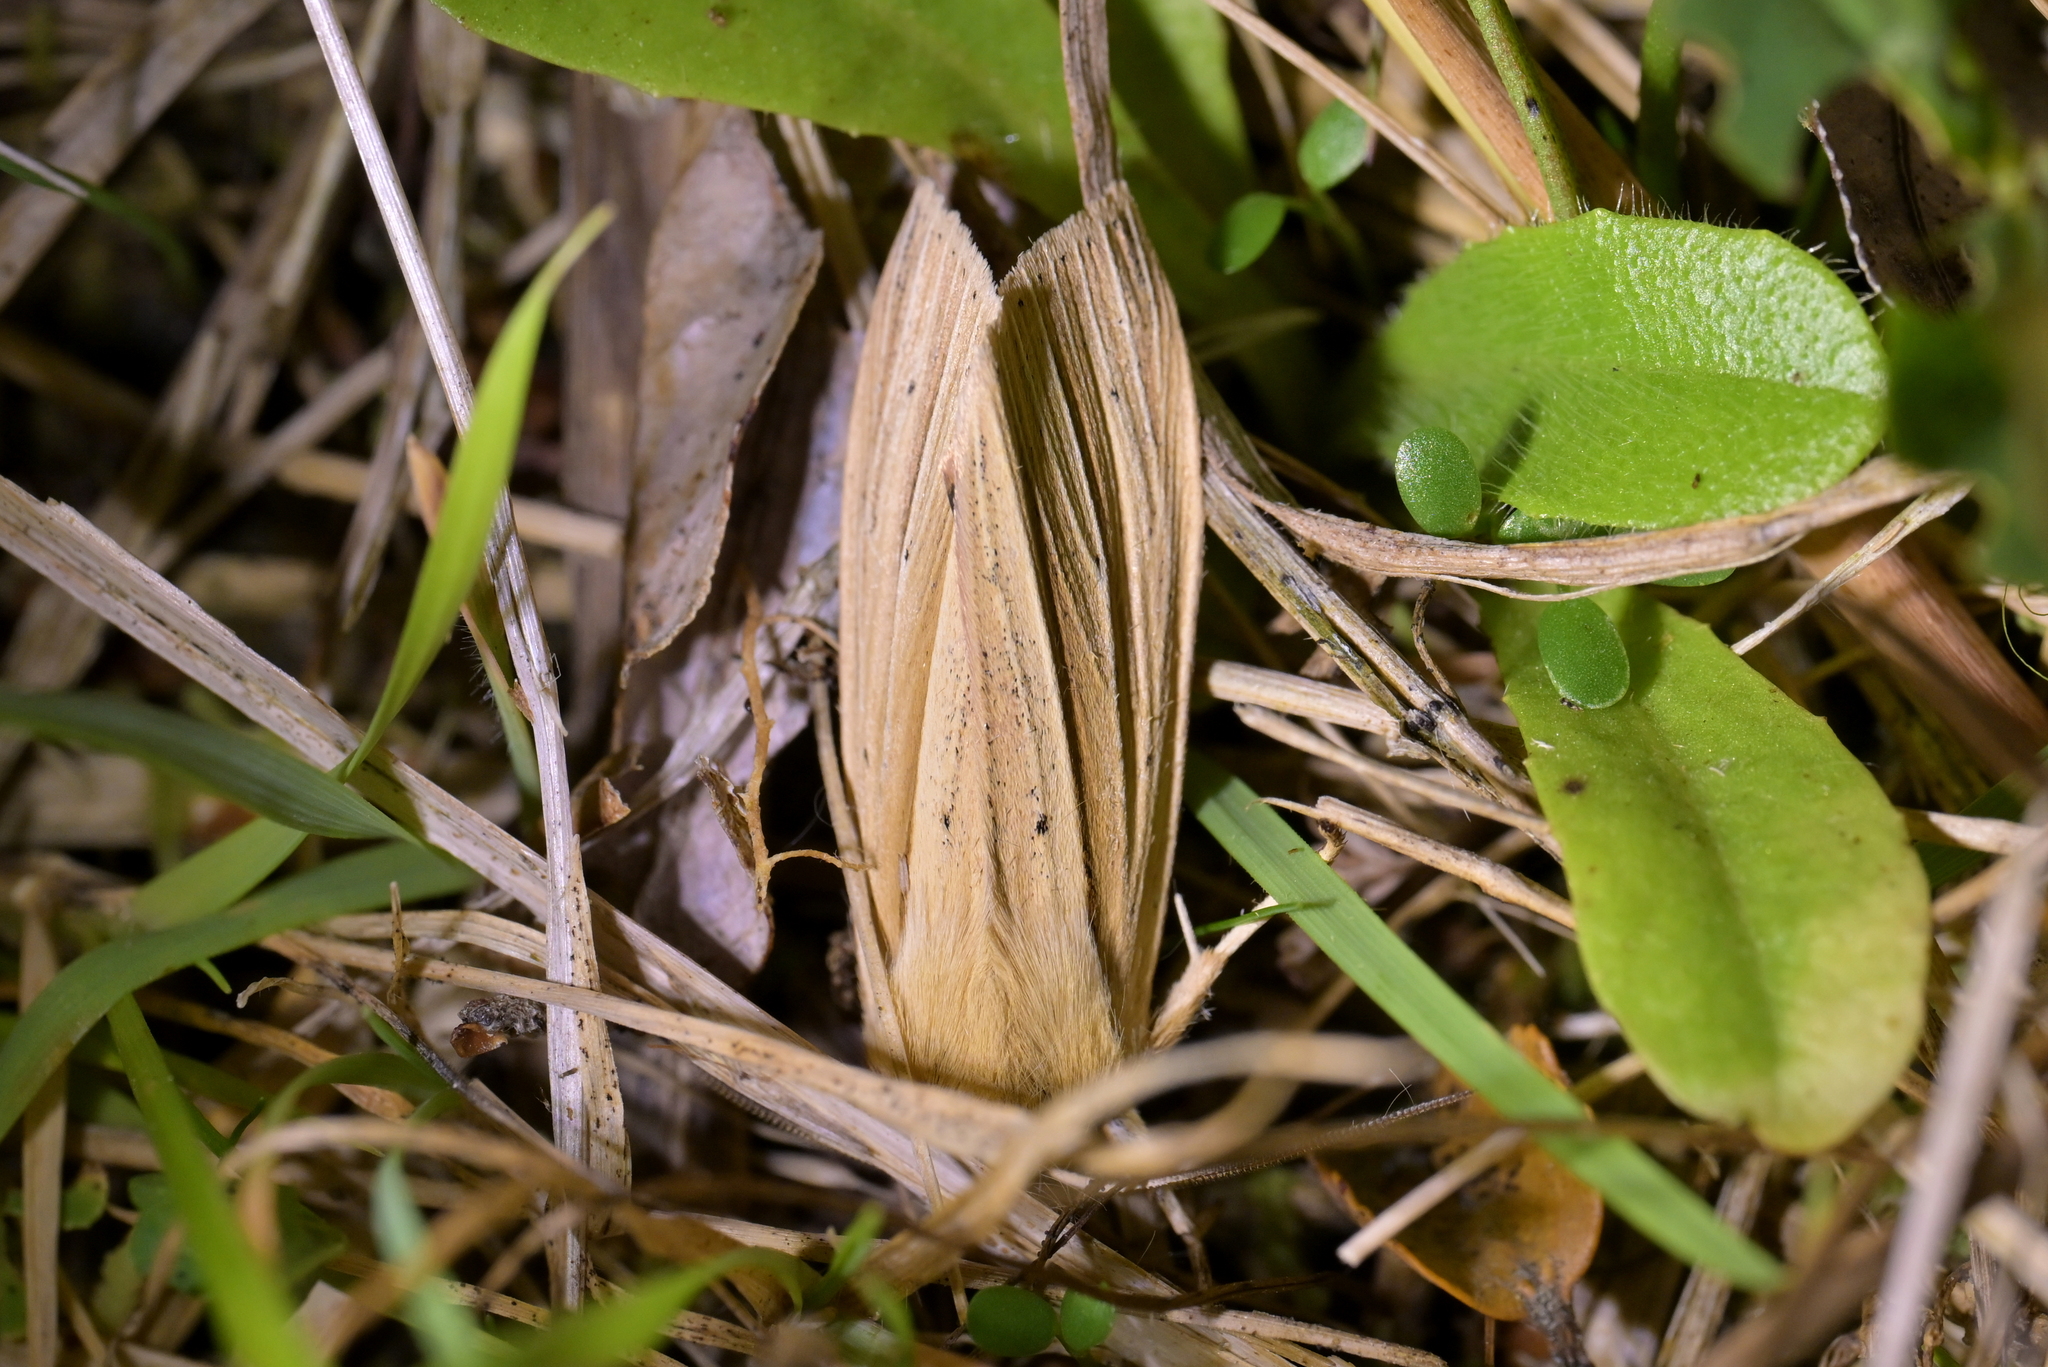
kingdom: Animalia
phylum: Arthropoda
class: Insecta
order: Lepidoptera
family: Noctuidae
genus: Ichneutica
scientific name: Ichneutica sulcana
